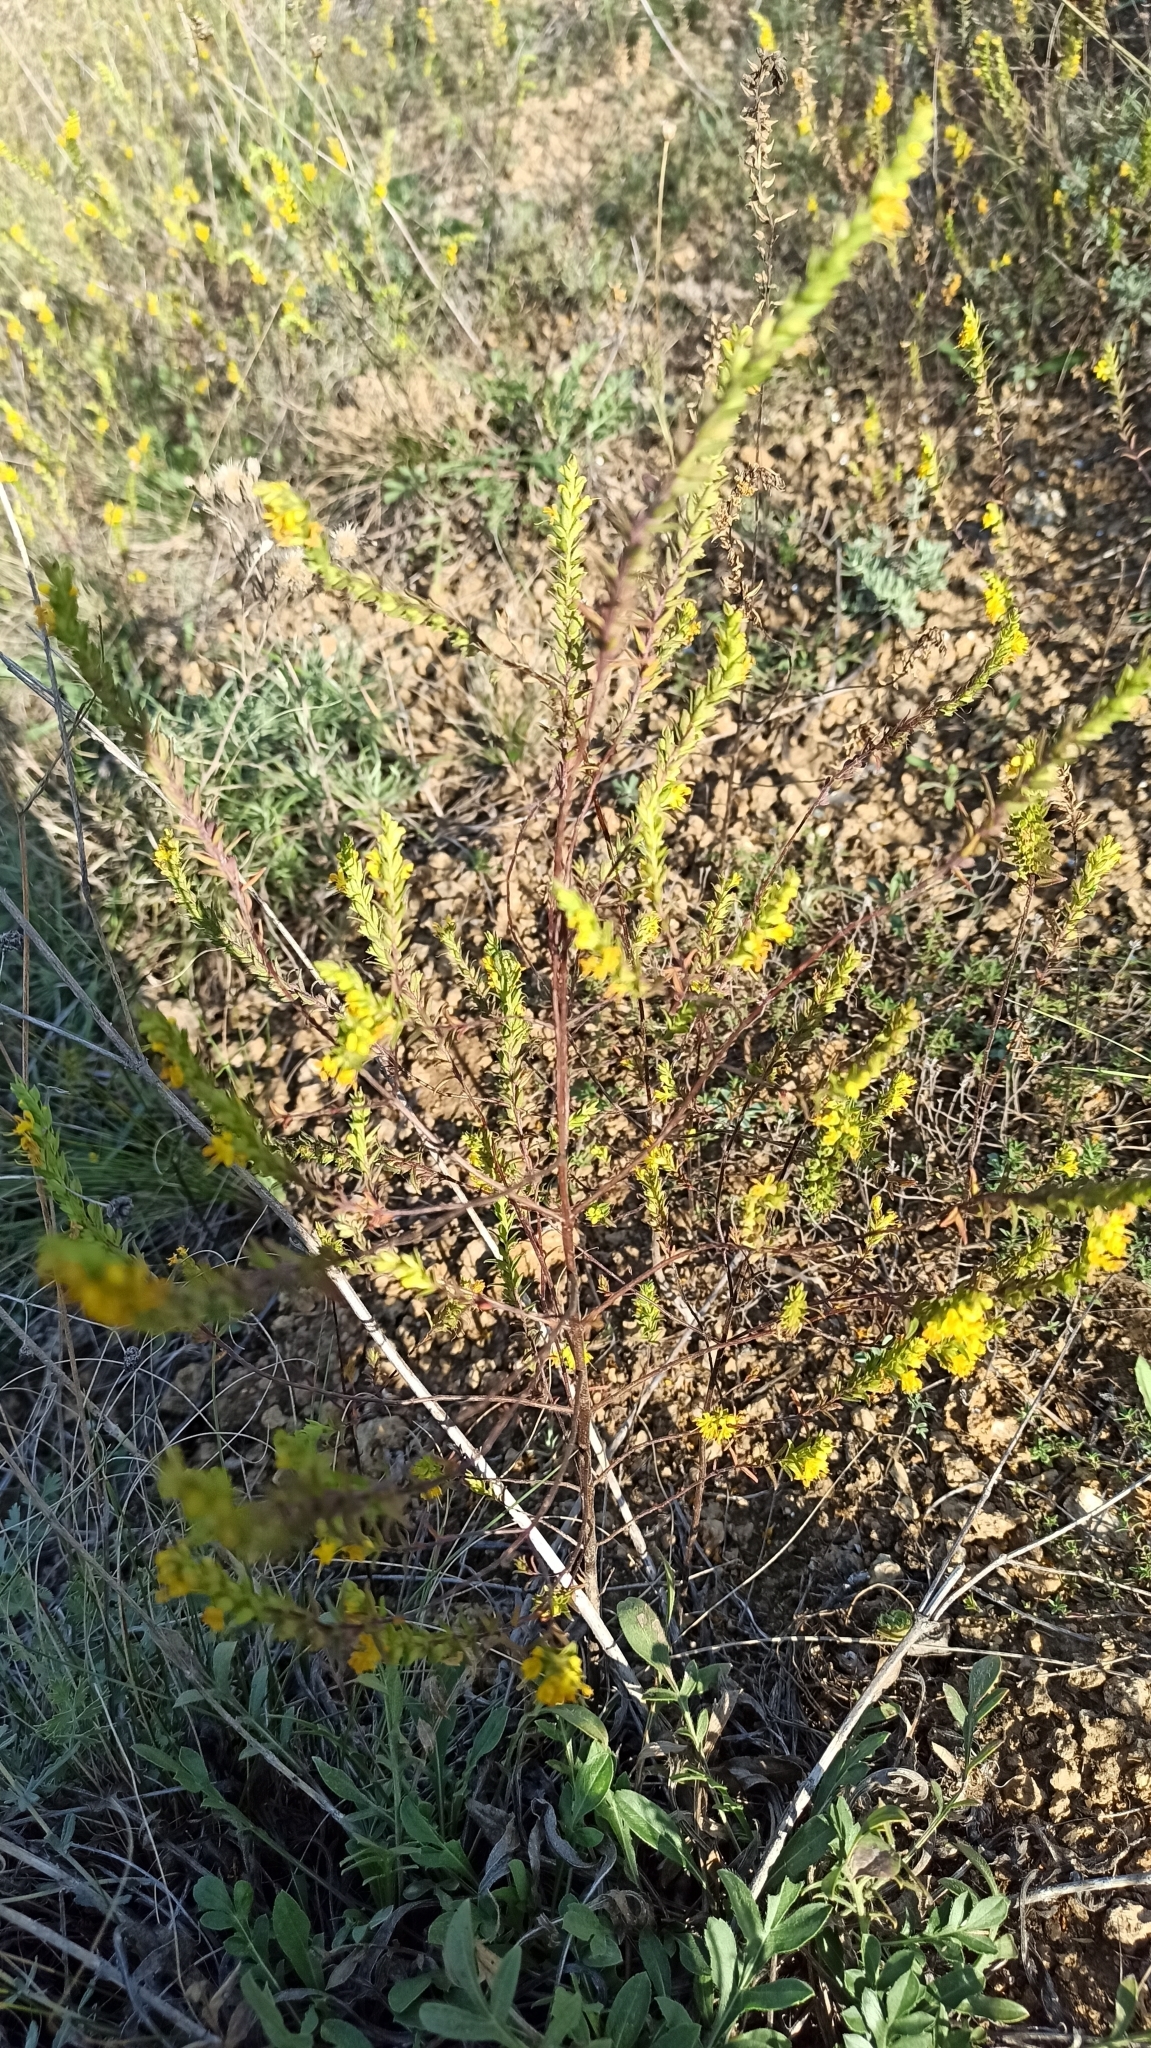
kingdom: Plantae
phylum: Tracheophyta
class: Magnoliopsida
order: Lamiales
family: Orobanchaceae
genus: Odontites
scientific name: Odontites luteus
